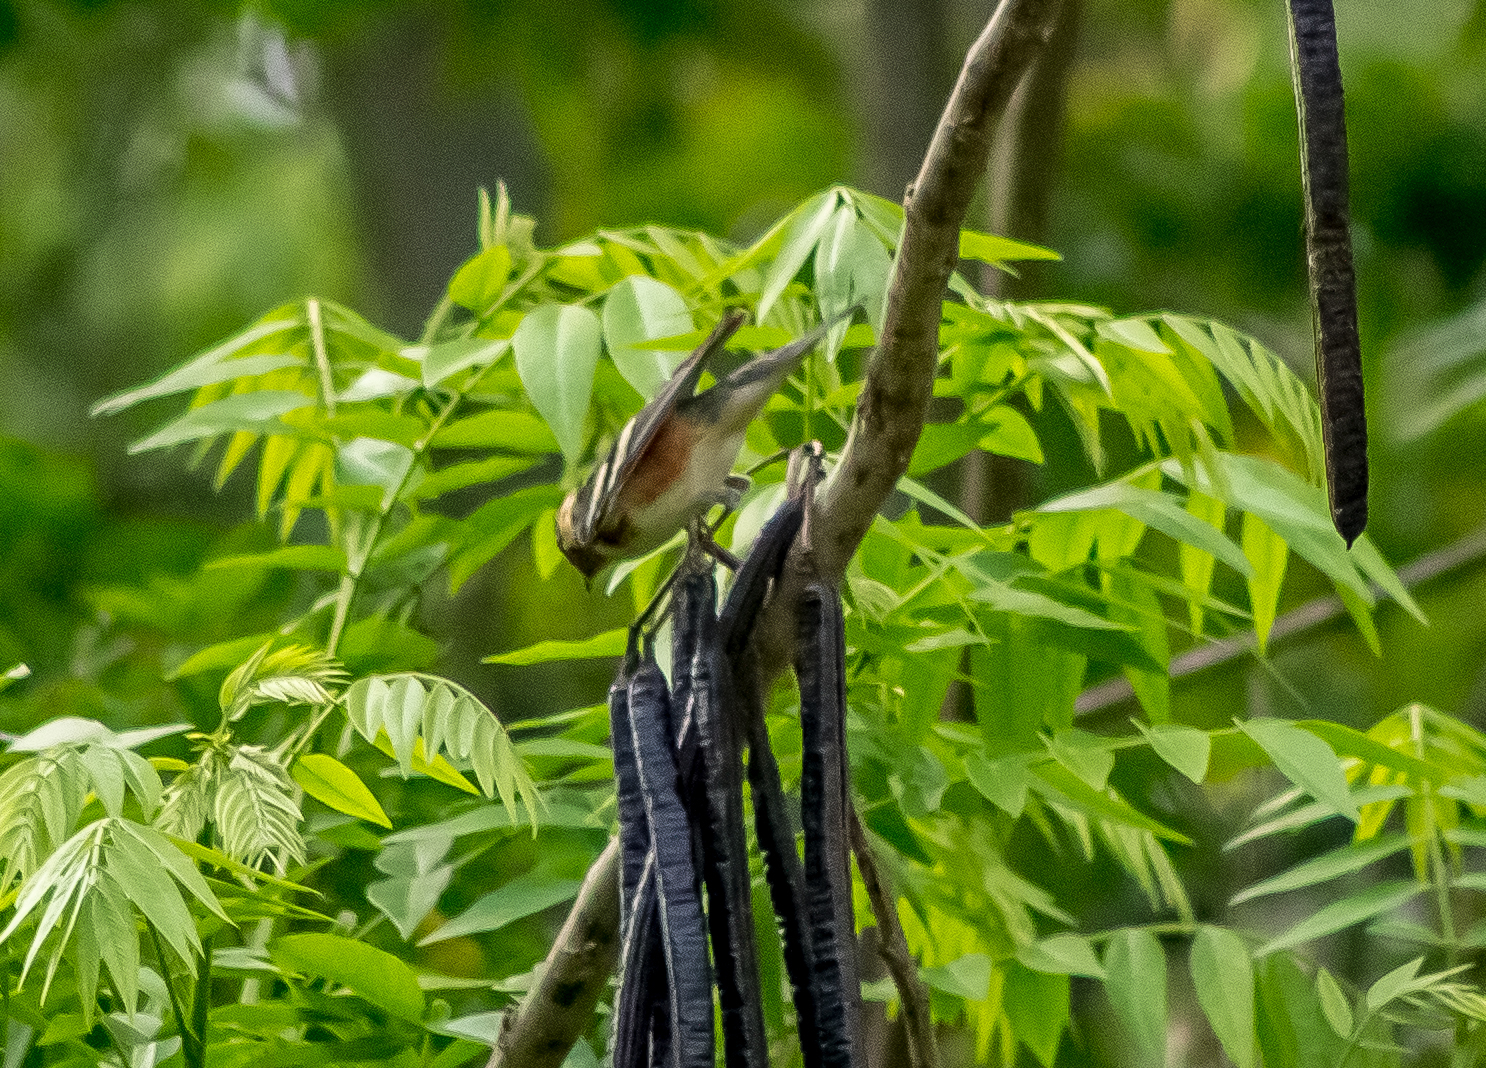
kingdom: Animalia
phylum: Chordata
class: Aves
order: Passeriformes
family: Parulidae
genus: Setophaga
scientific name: Setophaga castanea
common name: Bay-breasted warbler
